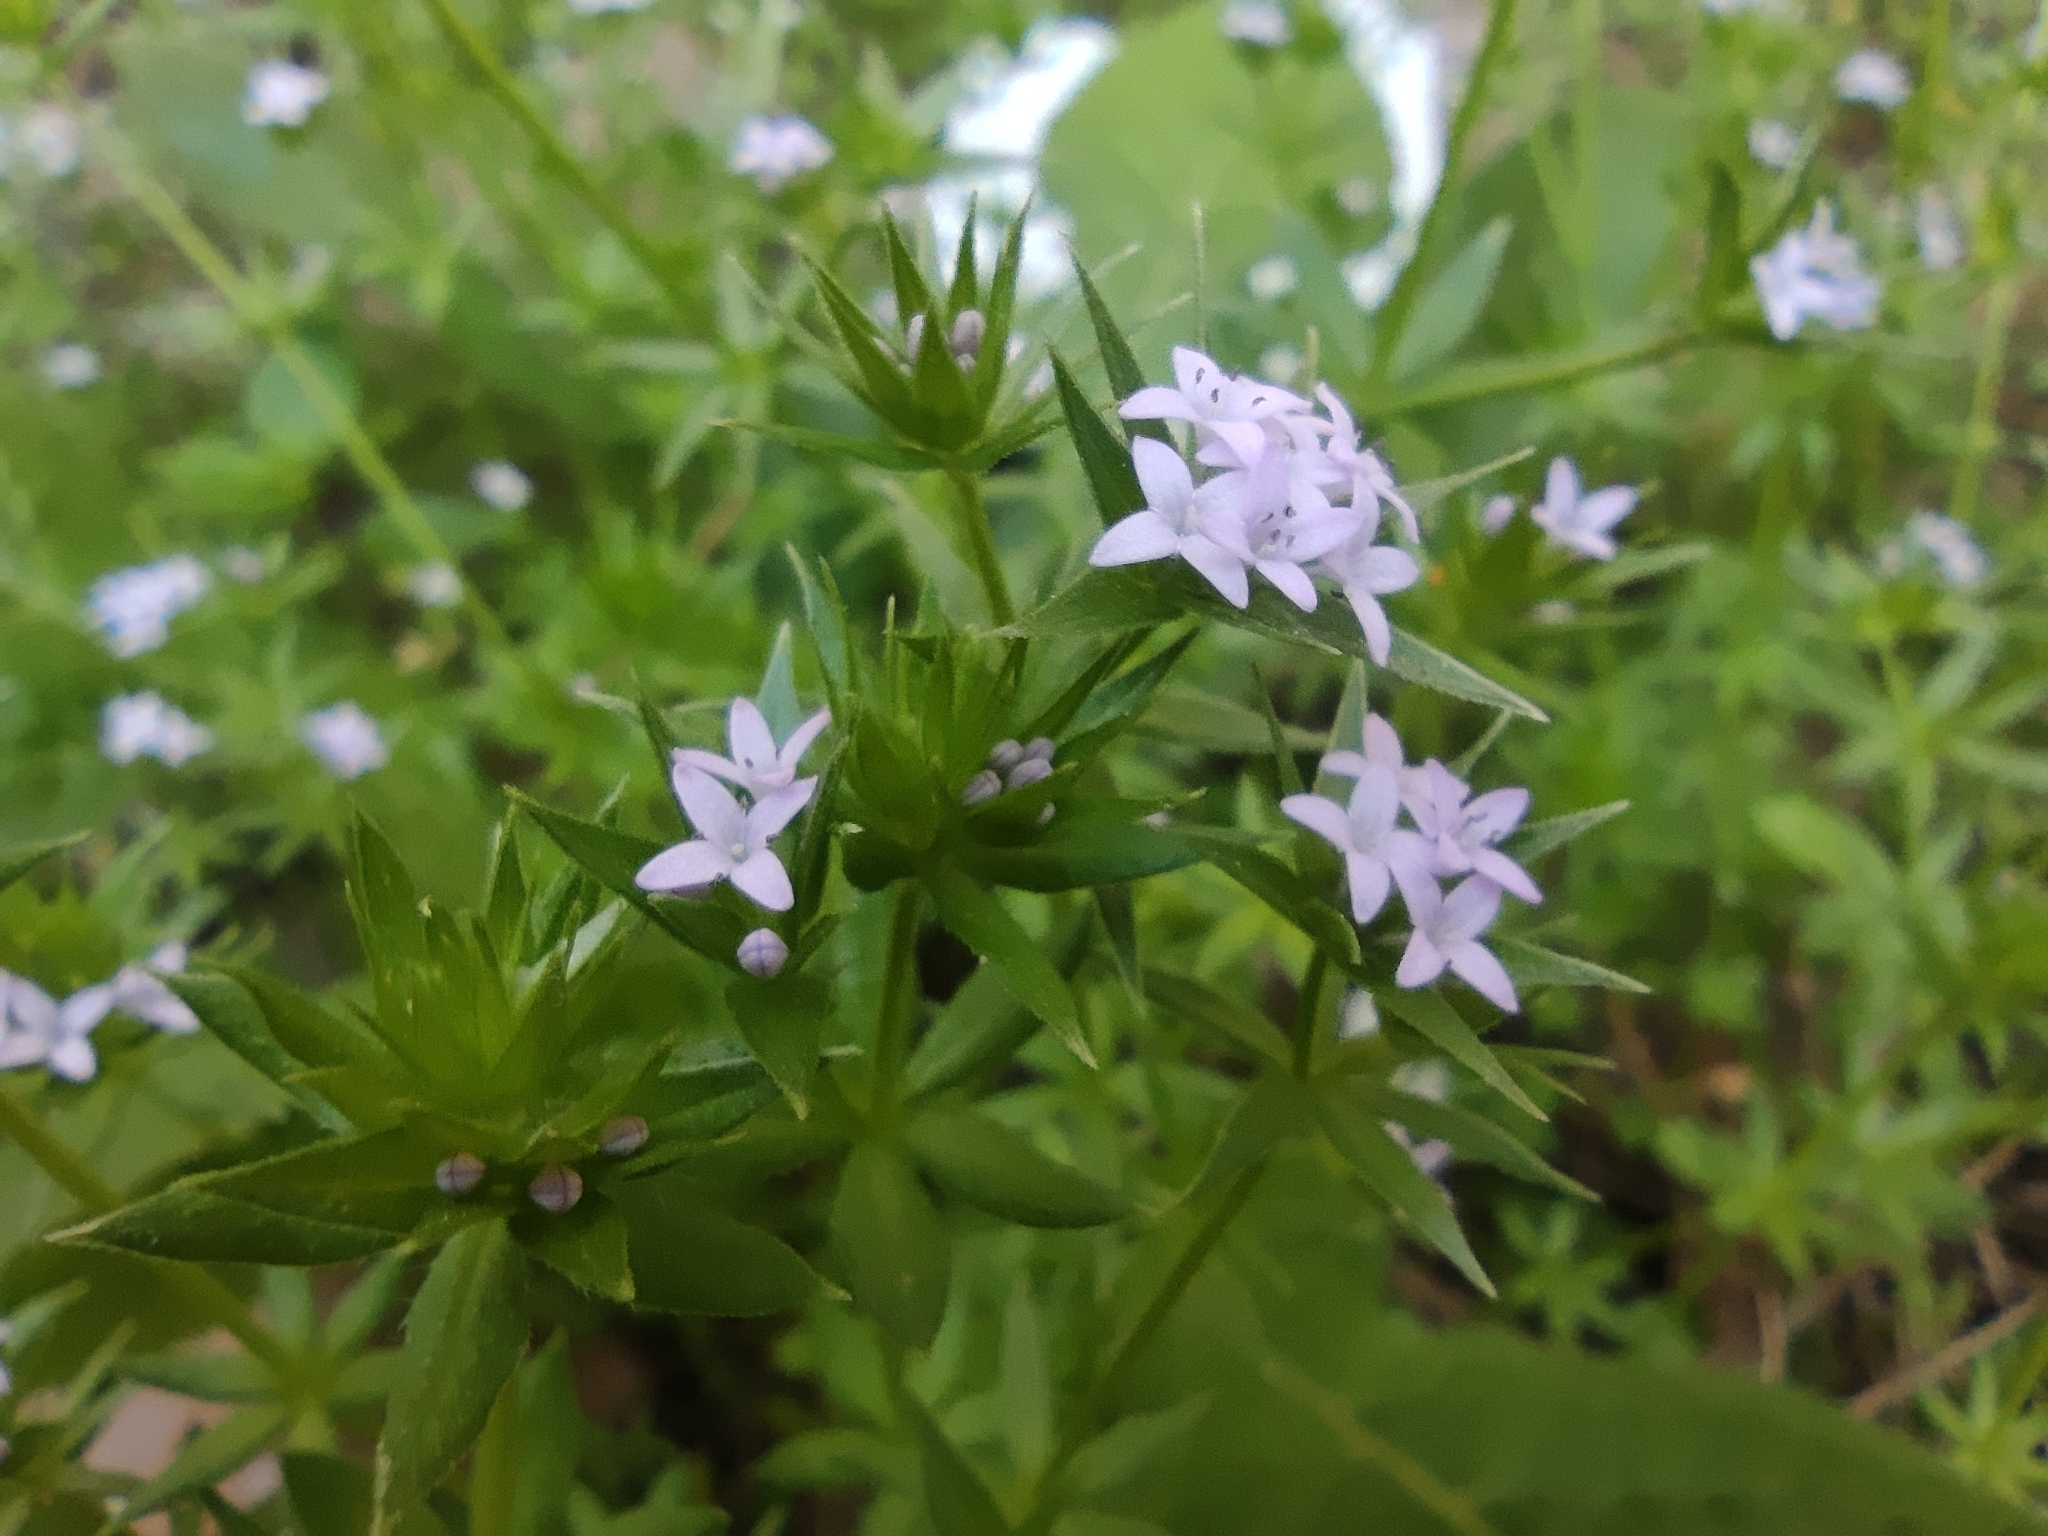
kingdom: Plantae
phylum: Tracheophyta
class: Magnoliopsida
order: Gentianales
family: Rubiaceae
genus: Sherardia
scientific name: Sherardia arvensis
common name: Field madder
